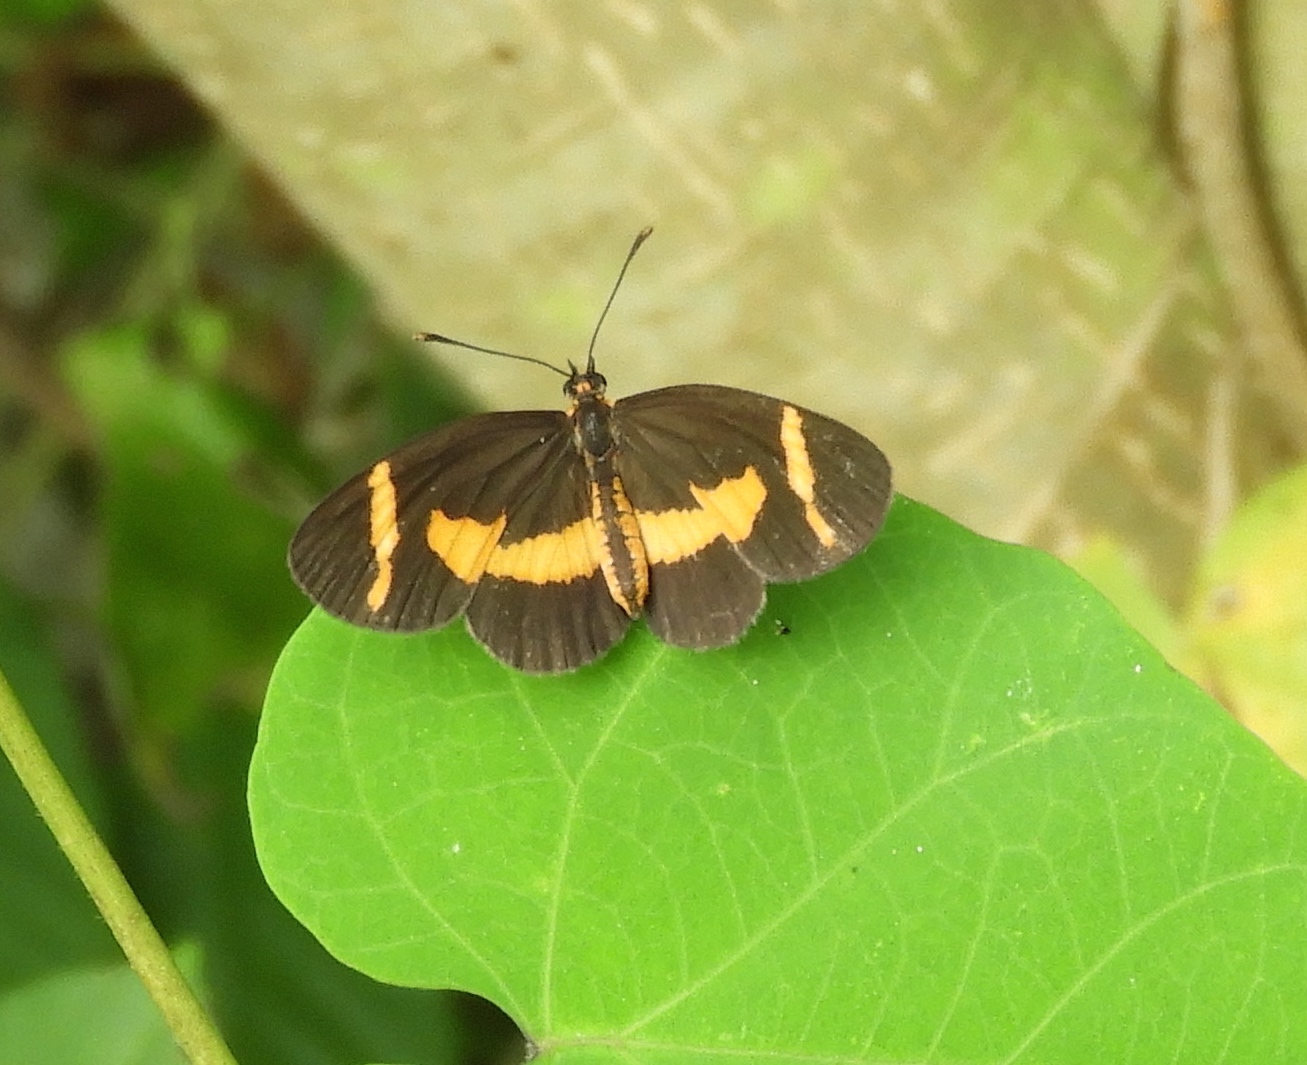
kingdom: Animalia
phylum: Arthropoda
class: Insecta
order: Lepidoptera
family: Nymphalidae
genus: Microtia
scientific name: Microtia elva
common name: Elf
